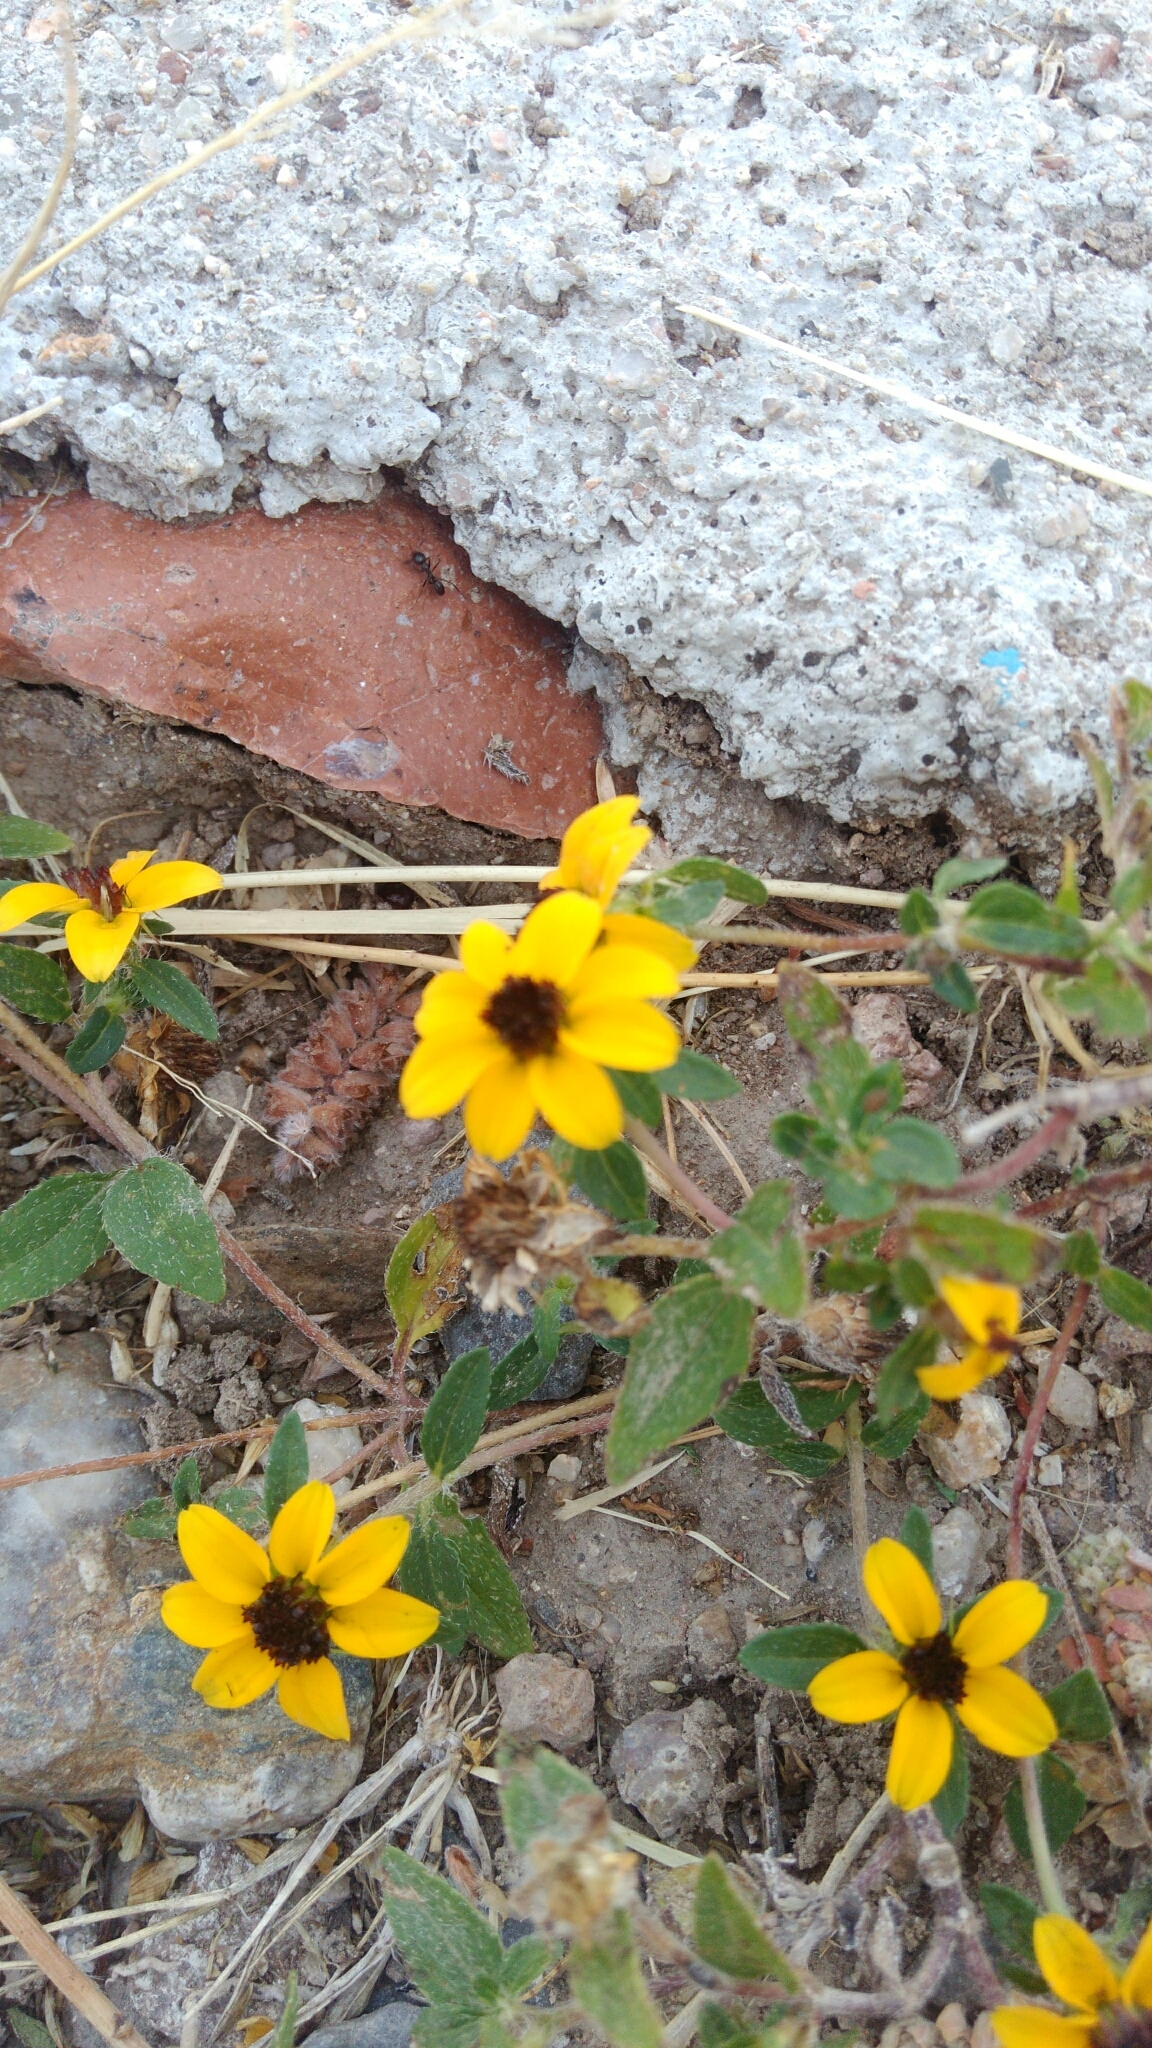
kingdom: Plantae
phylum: Tracheophyta
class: Magnoliopsida
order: Asterales
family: Asteraceae
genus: Sanvitalia
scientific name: Sanvitalia procumbens
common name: Mexican creeping zinnia
